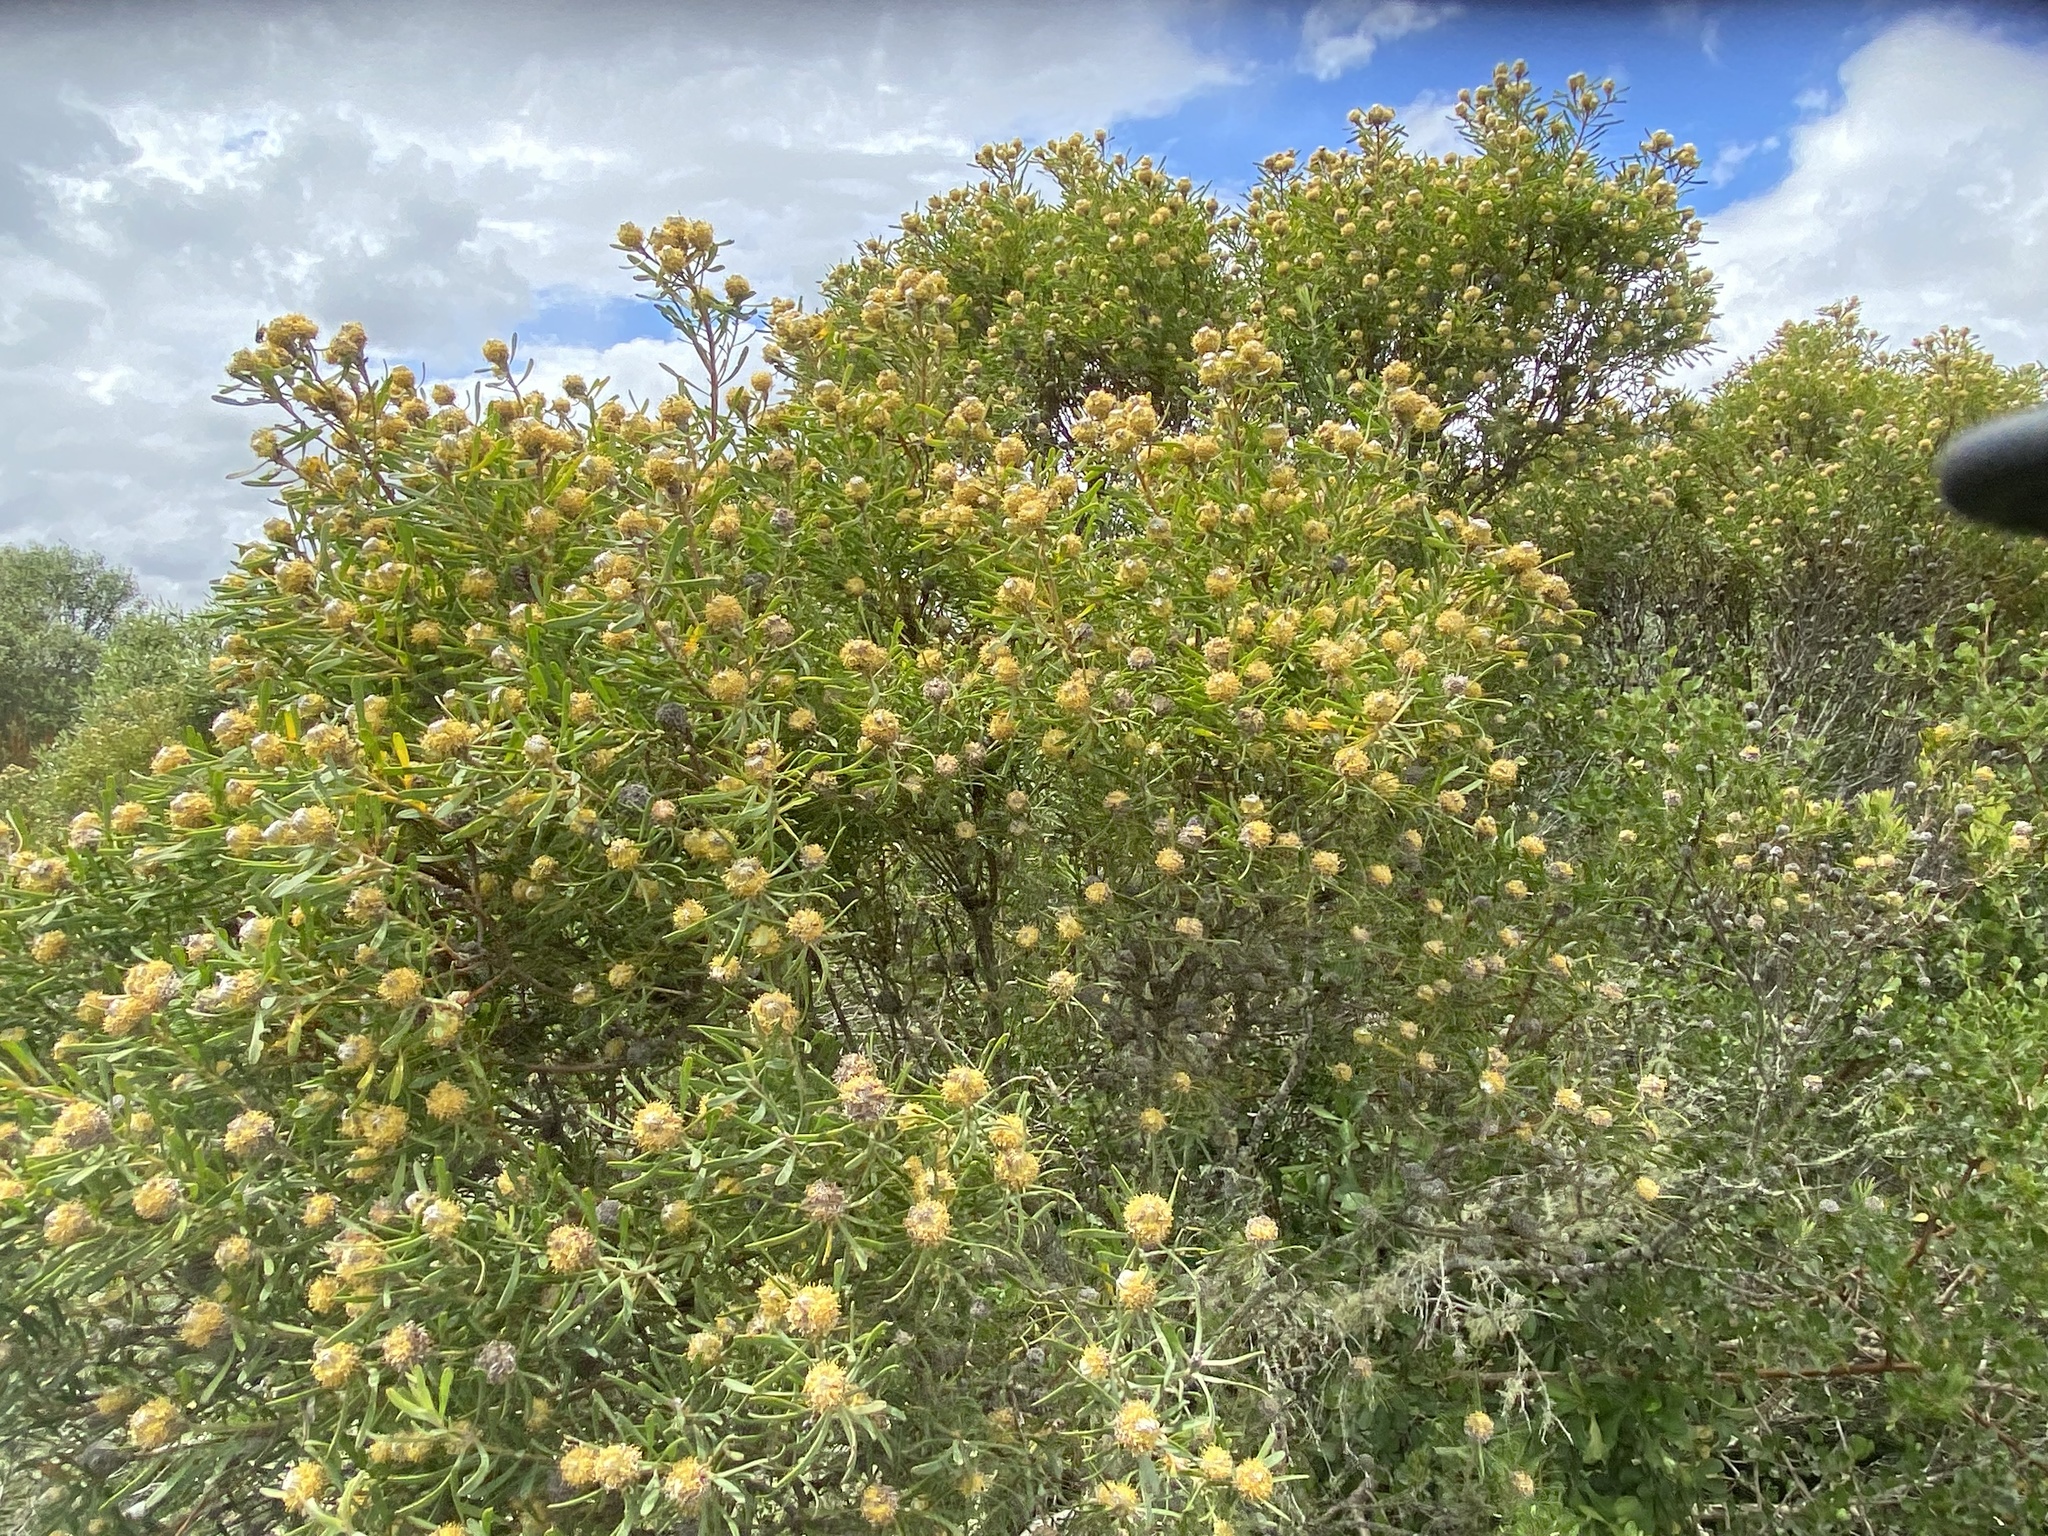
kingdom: Plantae
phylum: Tracheophyta
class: Magnoliopsida
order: Proteales
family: Proteaceae
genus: Leucadendron
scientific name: Leucadendron galpinii
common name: Hairless conebush
